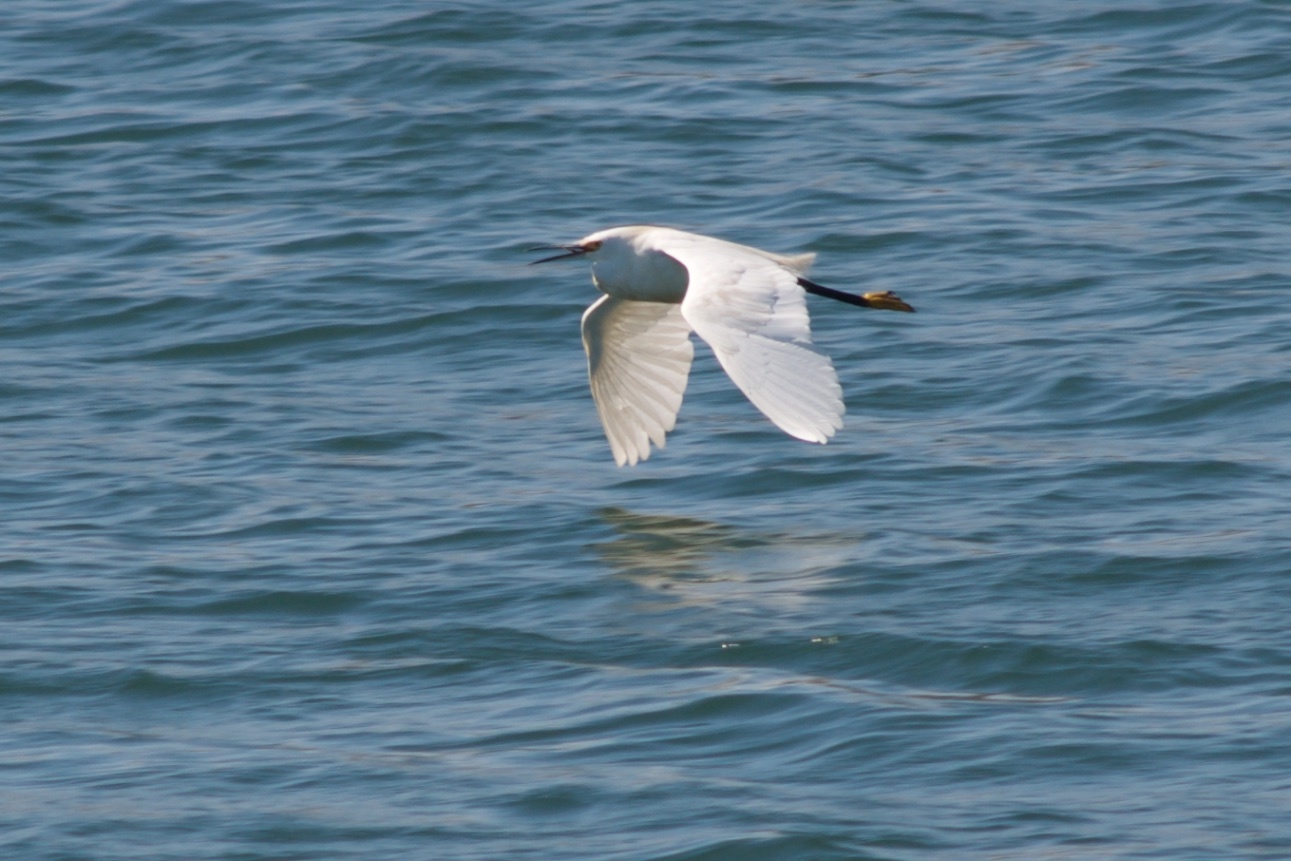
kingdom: Animalia
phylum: Chordata
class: Aves
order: Pelecaniformes
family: Ardeidae
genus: Egretta
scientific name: Egretta thula
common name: Snowy egret
